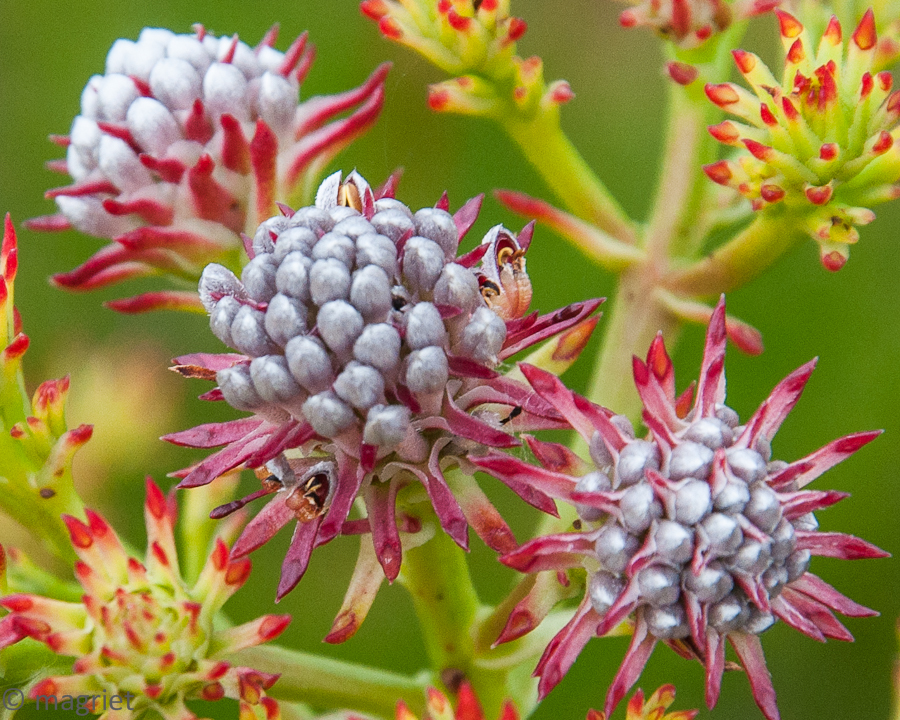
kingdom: Plantae
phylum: Tracheophyta
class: Magnoliopsida
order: Proteales
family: Proteaceae
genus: Serruria
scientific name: Serruria elongata
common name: Long-stalk spiderhead
